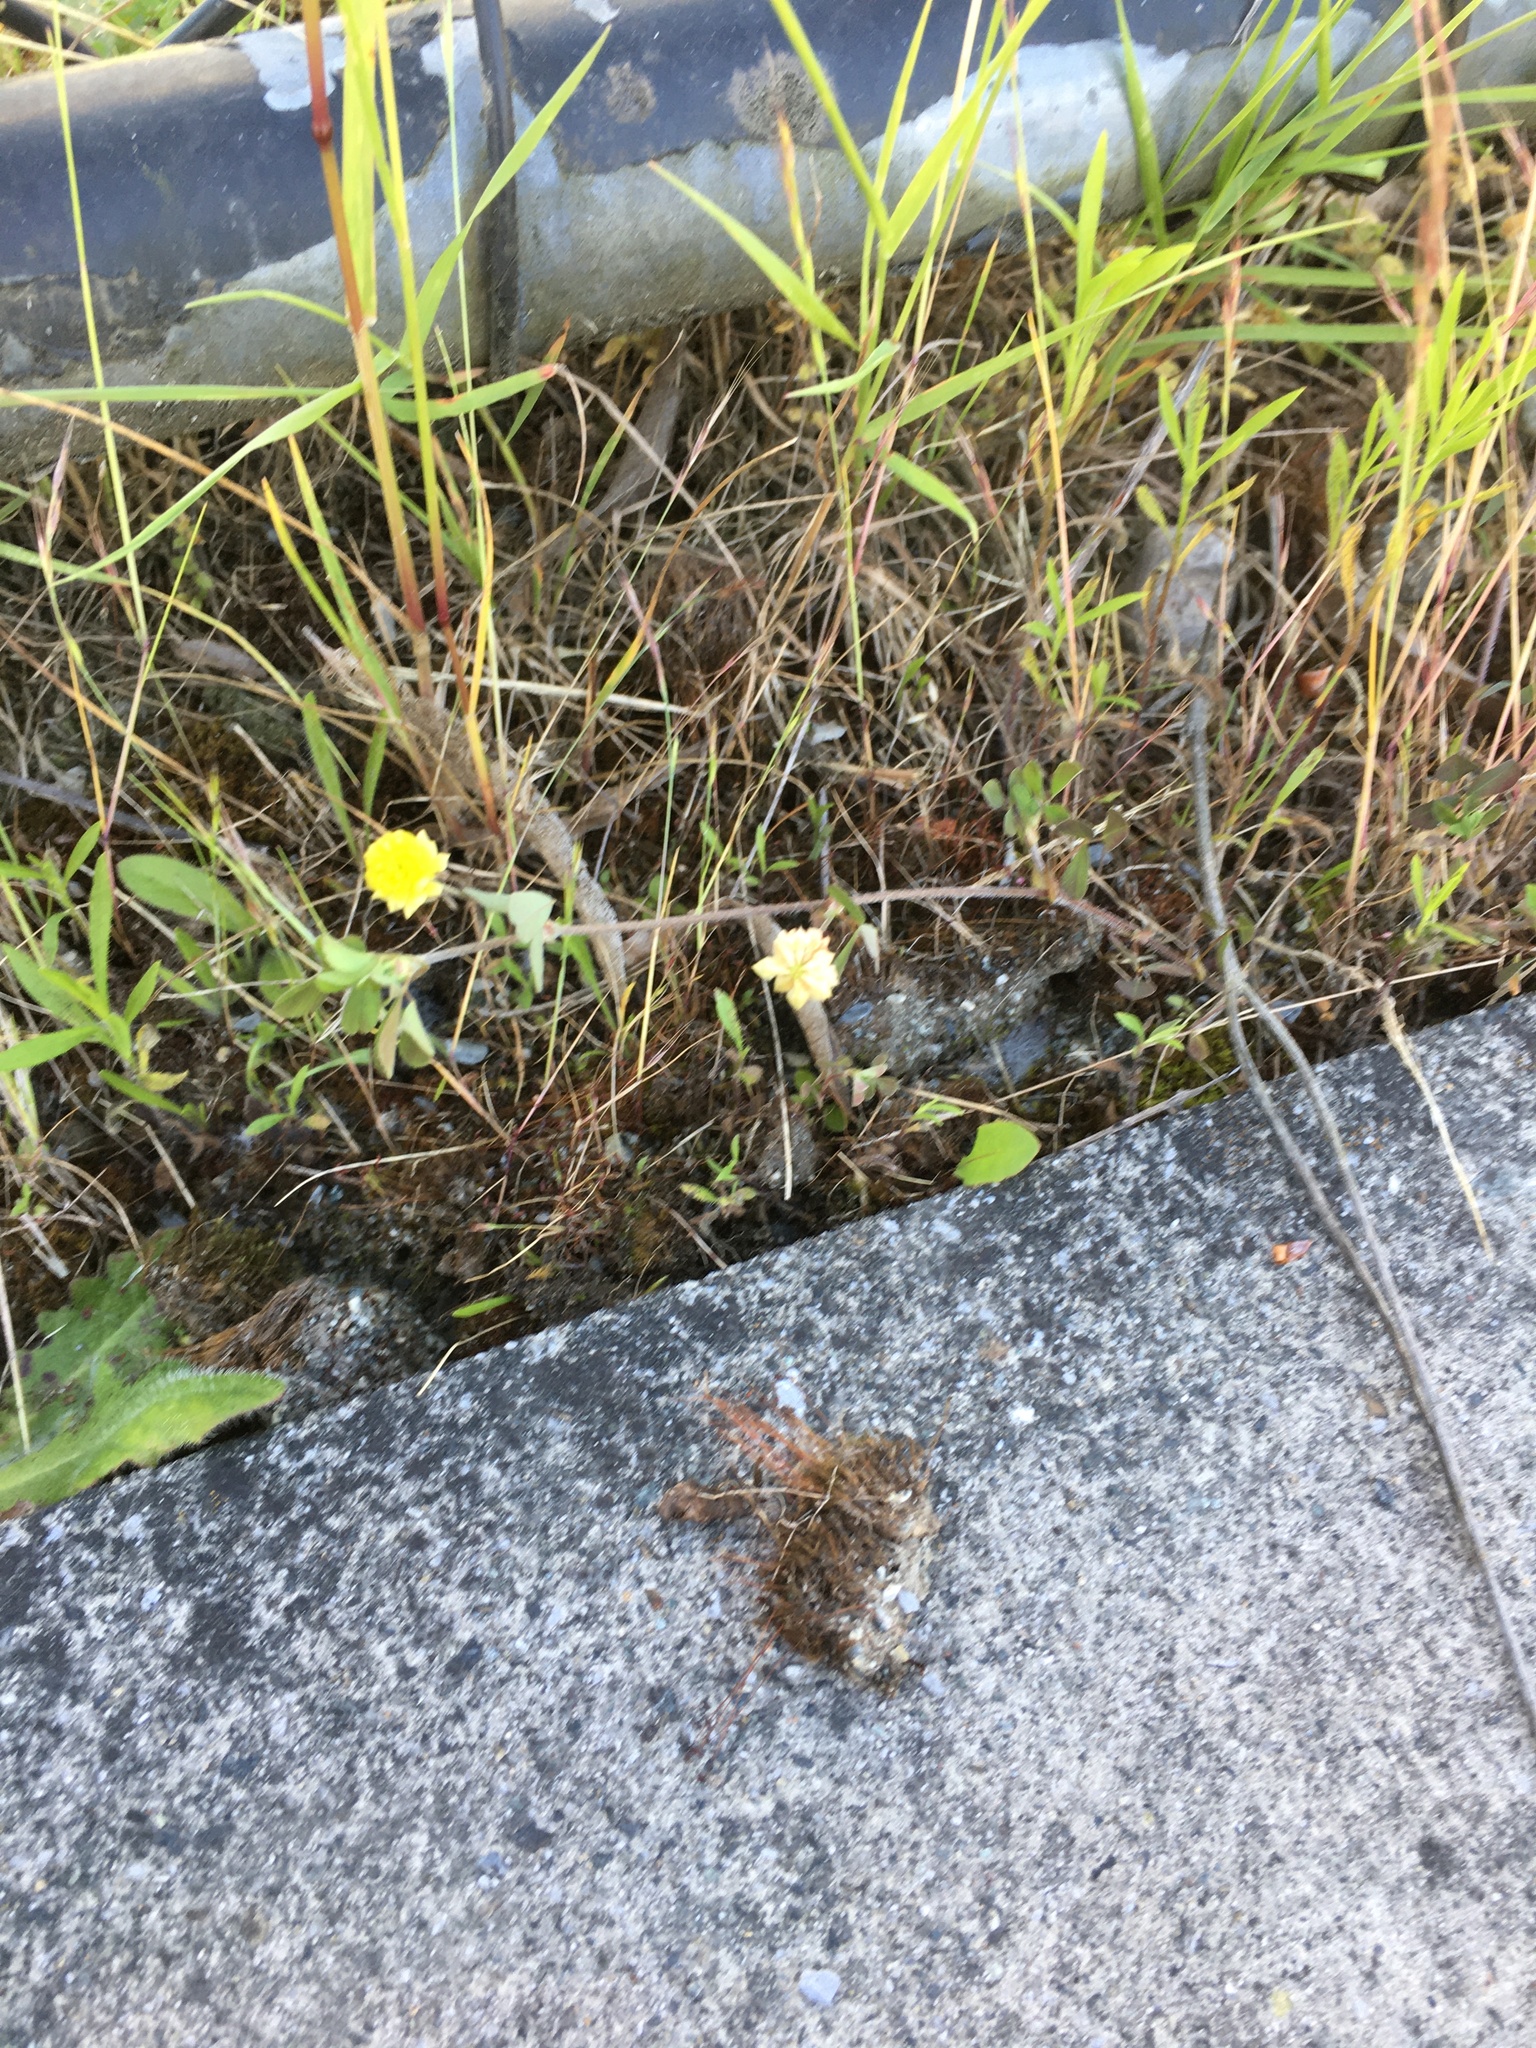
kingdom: Plantae
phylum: Tracheophyta
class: Magnoliopsida
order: Fabales
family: Fabaceae
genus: Trifolium
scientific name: Trifolium campestre
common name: Field clover
